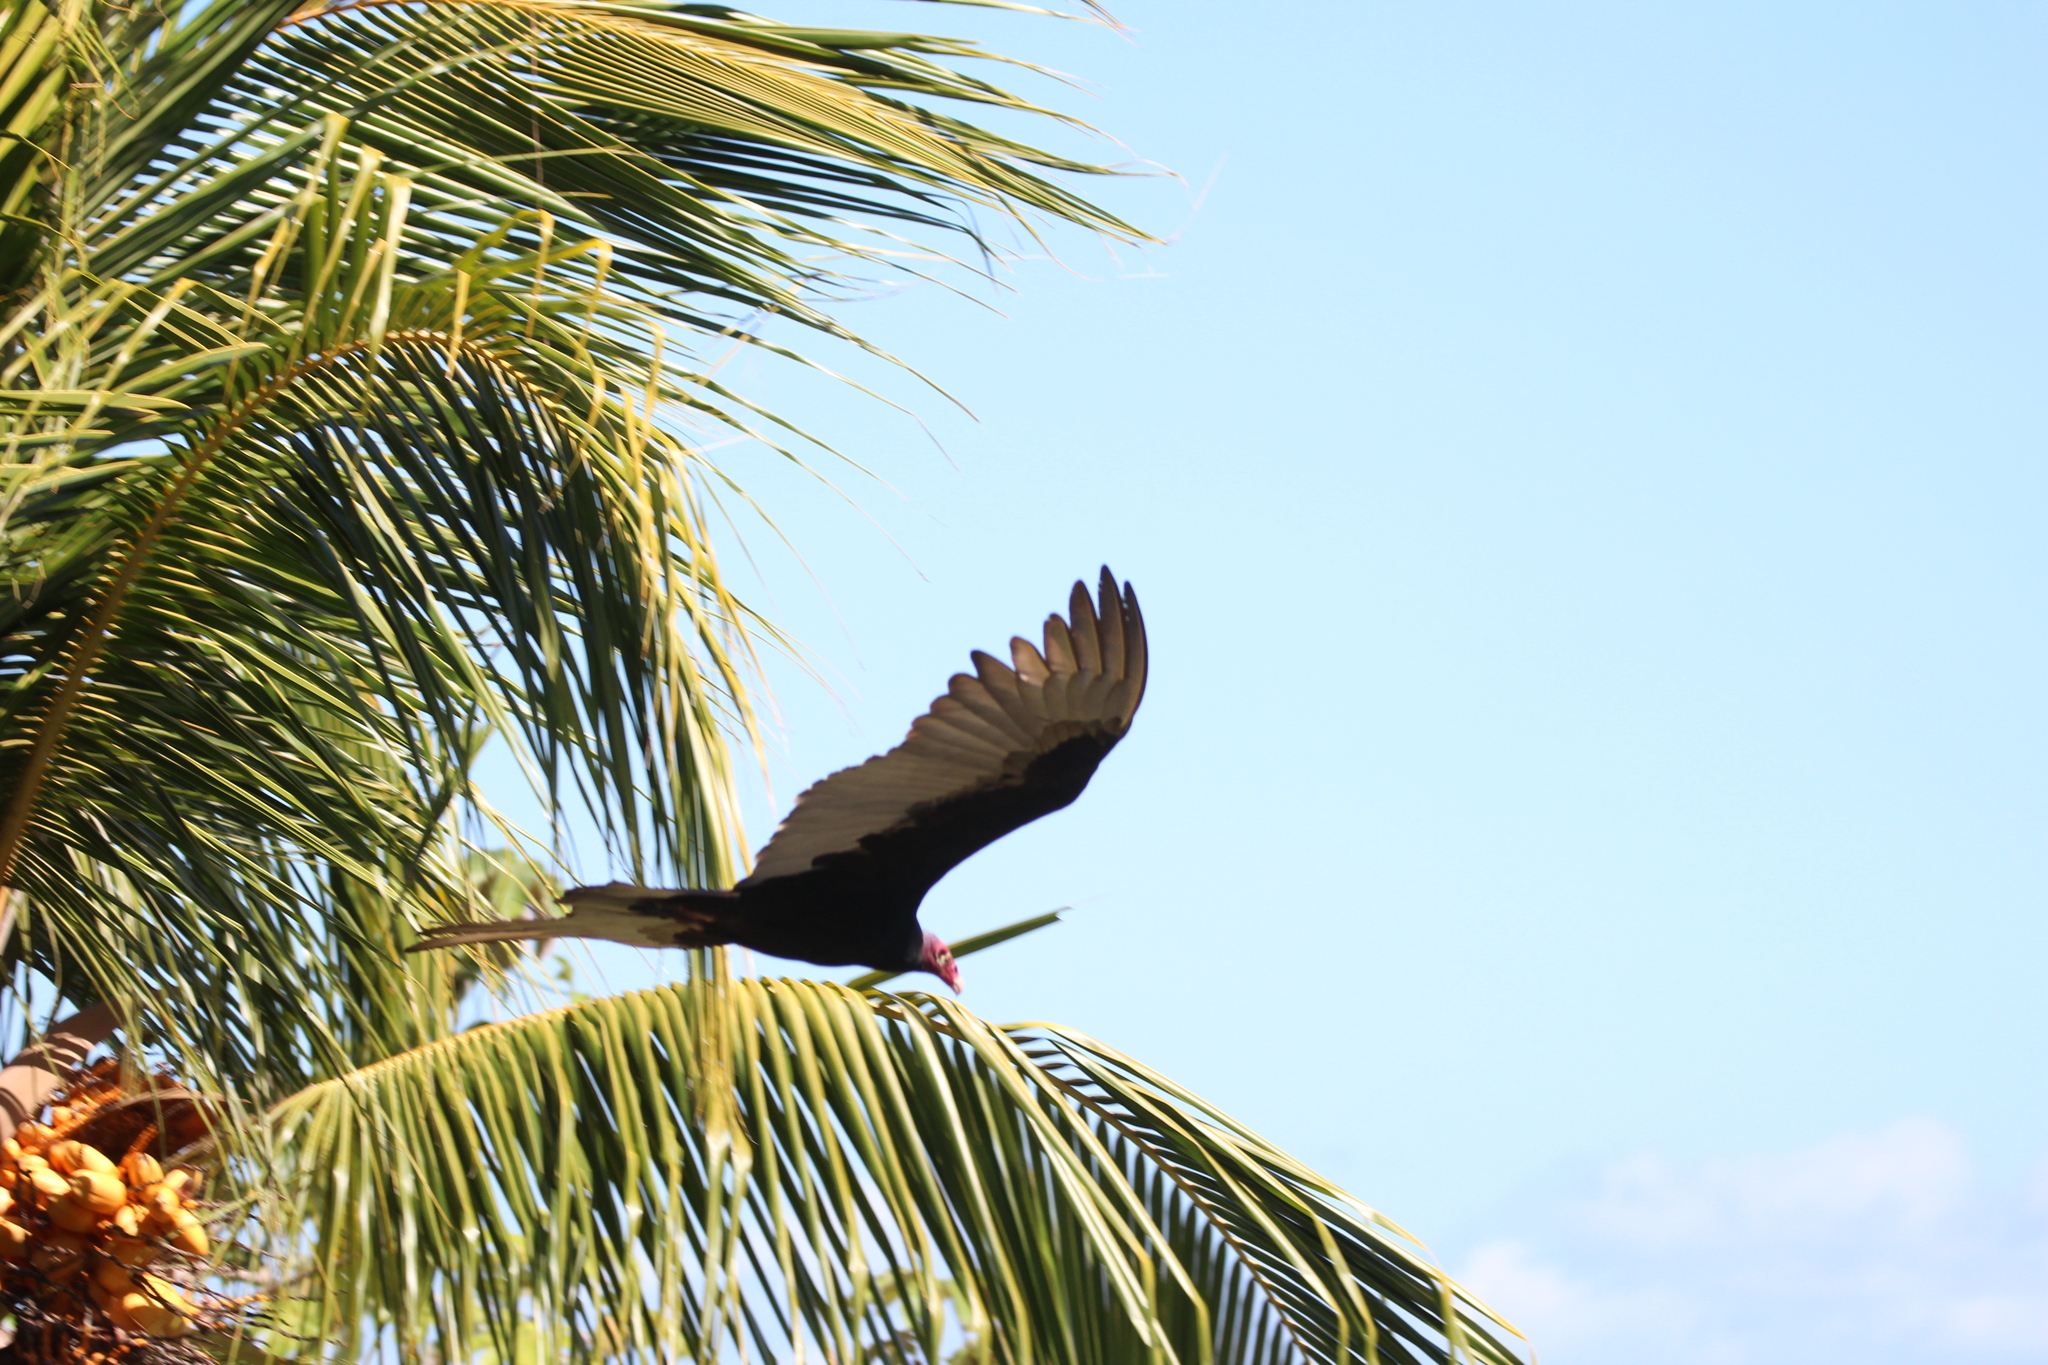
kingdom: Animalia
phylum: Chordata
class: Aves
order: Accipitriformes
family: Cathartidae
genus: Cathartes
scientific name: Cathartes aura
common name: Turkey vulture
